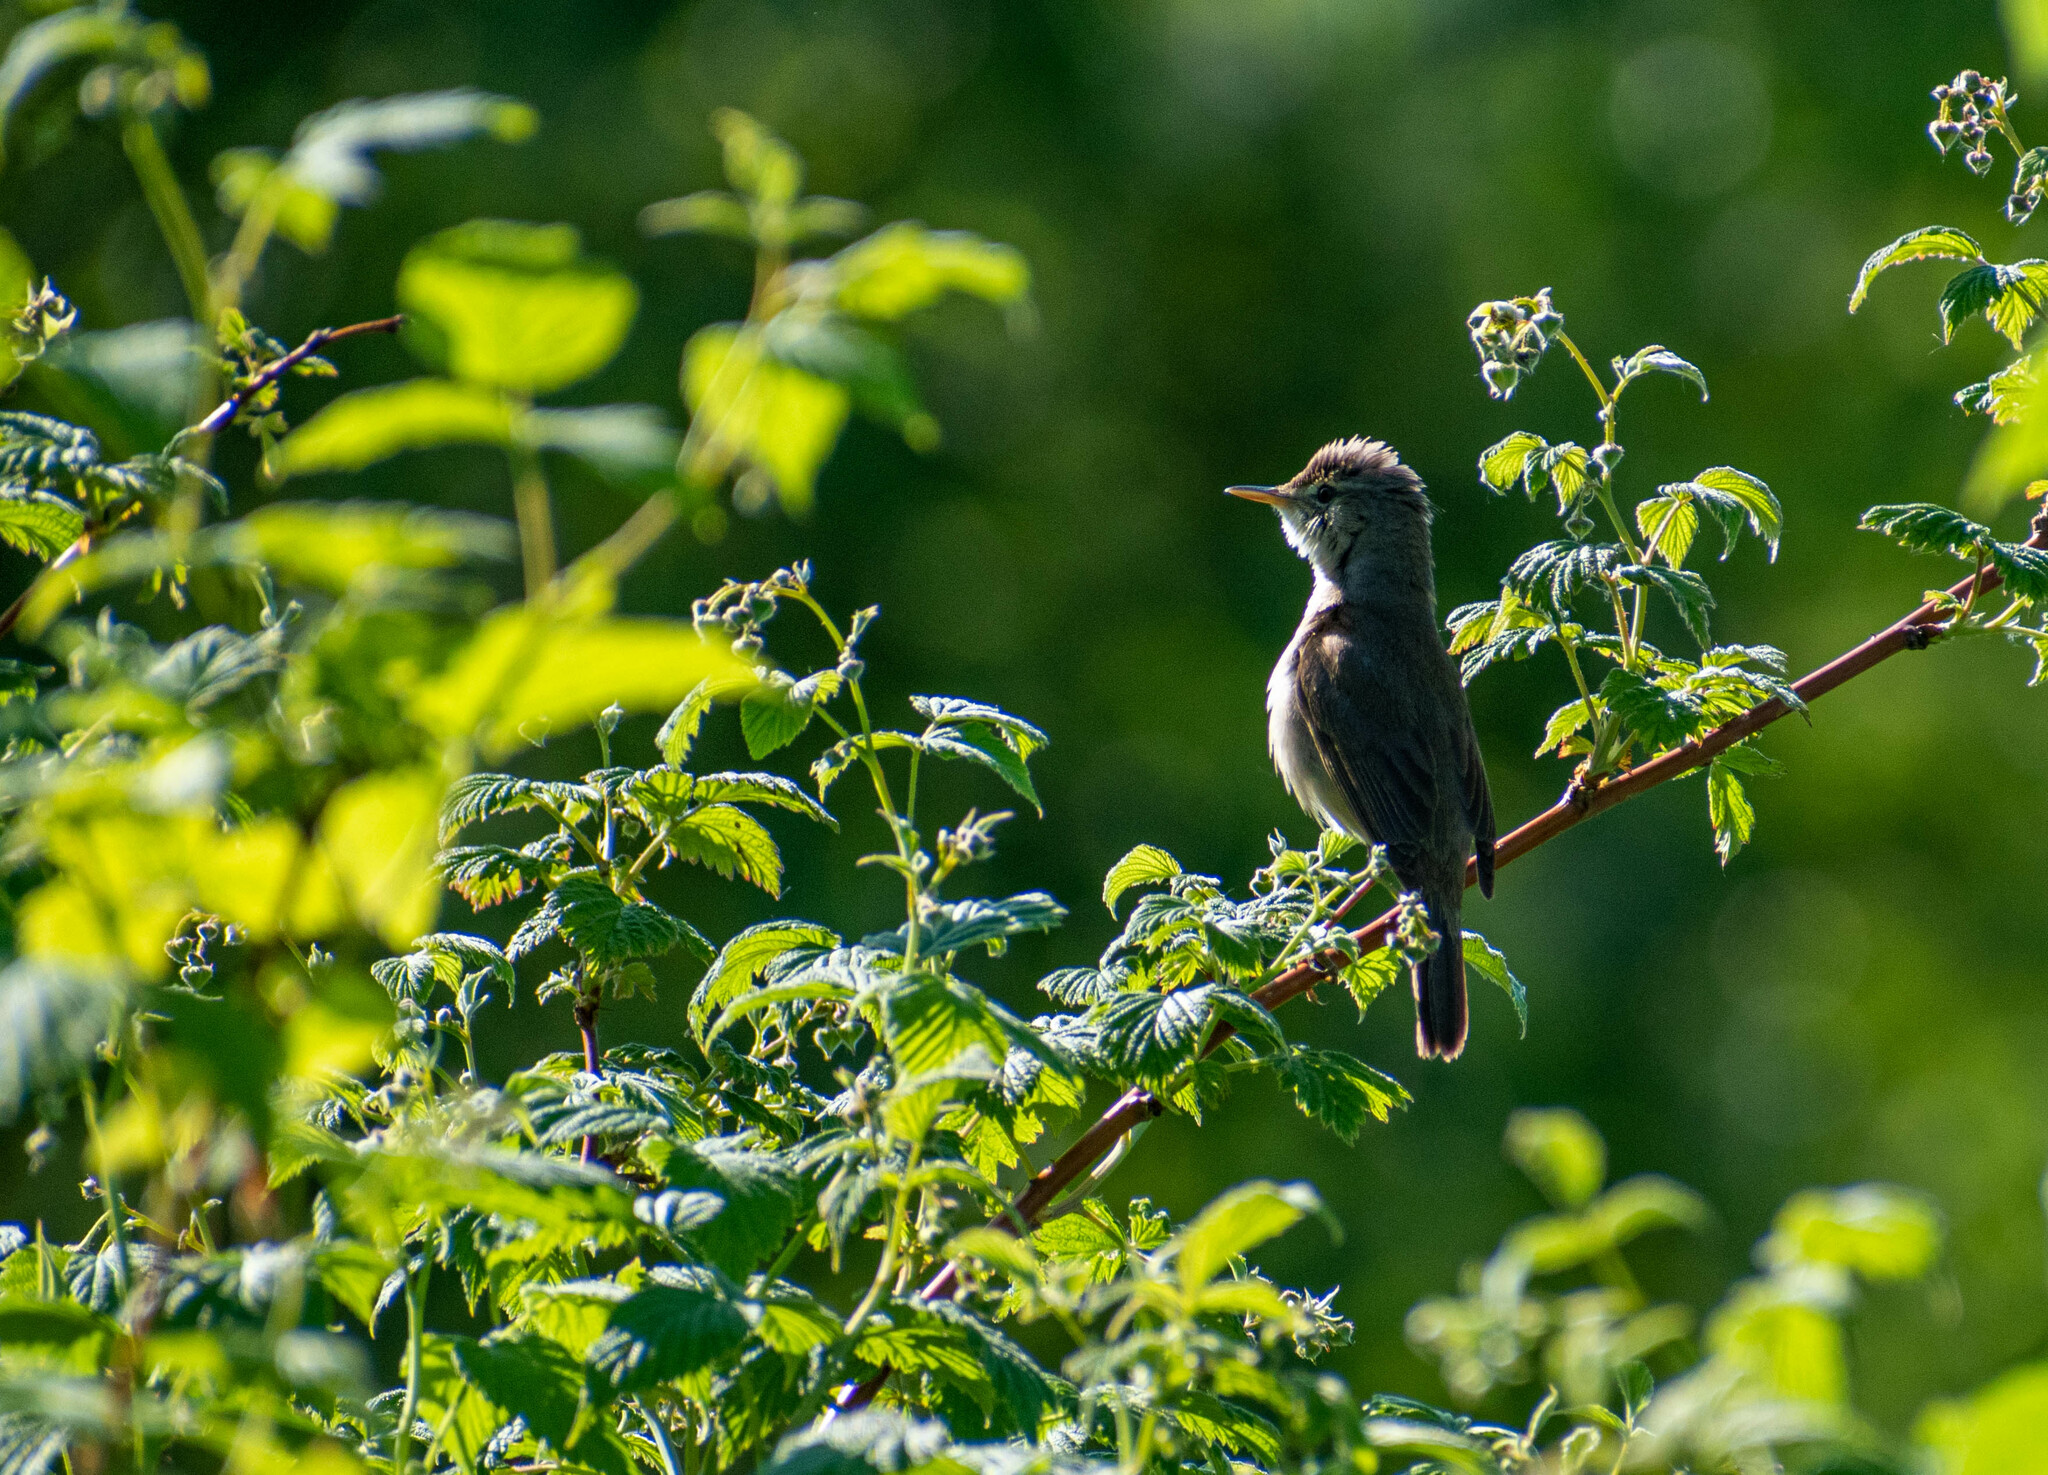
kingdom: Animalia
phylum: Chordata
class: Aves
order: Passeriformes
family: Acrocephalidae
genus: Acrocephalus
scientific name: Acrocephalus dumetorum
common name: Blyth's reed warbler
